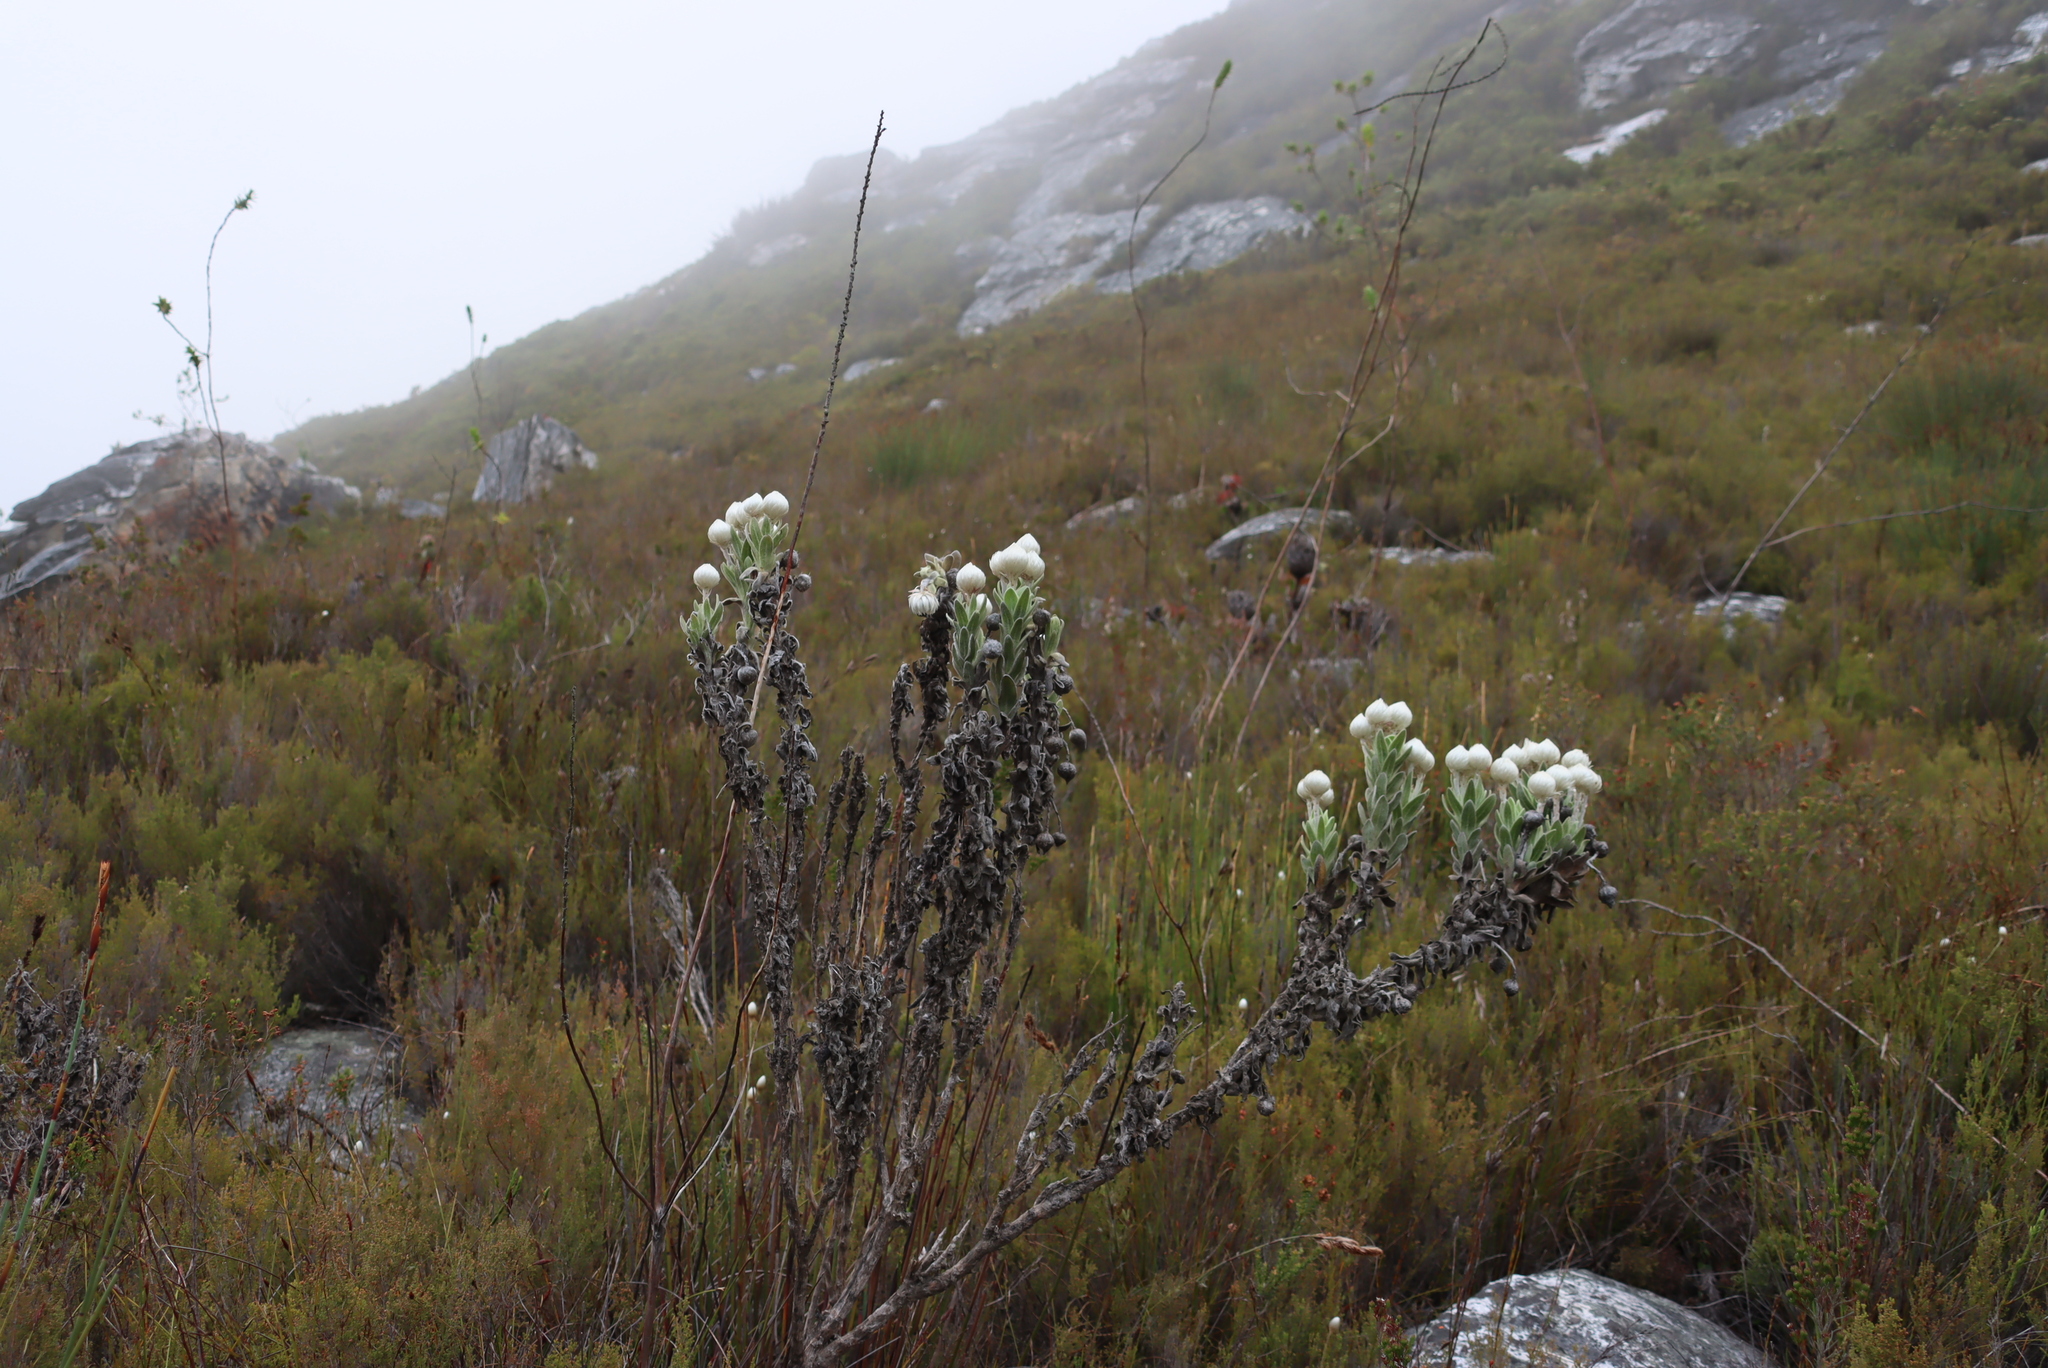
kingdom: Plantae
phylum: Tracheophyta
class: Magnoliopsida
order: Asterales
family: Asteraceae
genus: Syncarpha
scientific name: Syncarpha vestita
